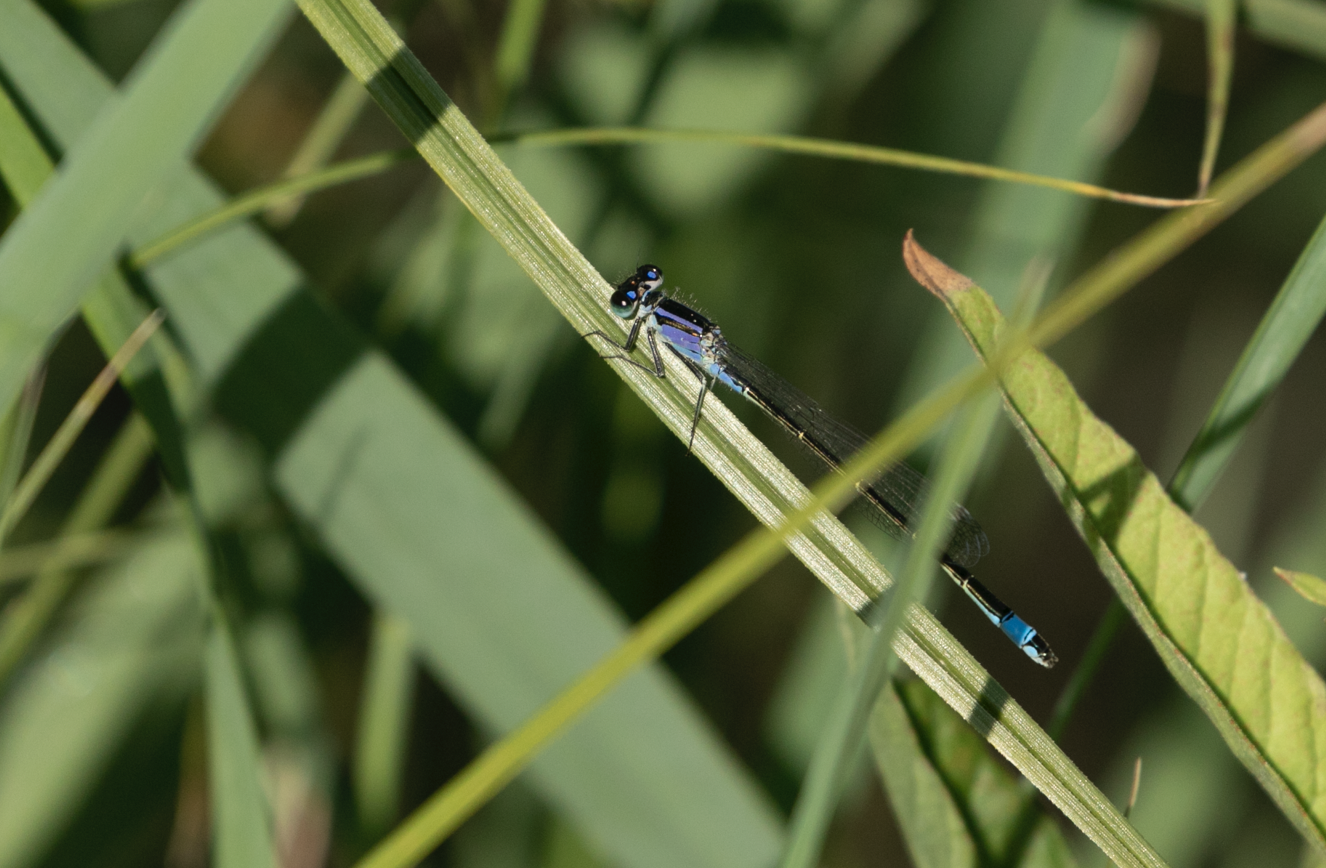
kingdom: Animalia
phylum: Arthropoda
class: Insecta
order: Odonata
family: Coenagrionidae
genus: Ischnura
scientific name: Ischnura elegans
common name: Blue-tailed damselfly
